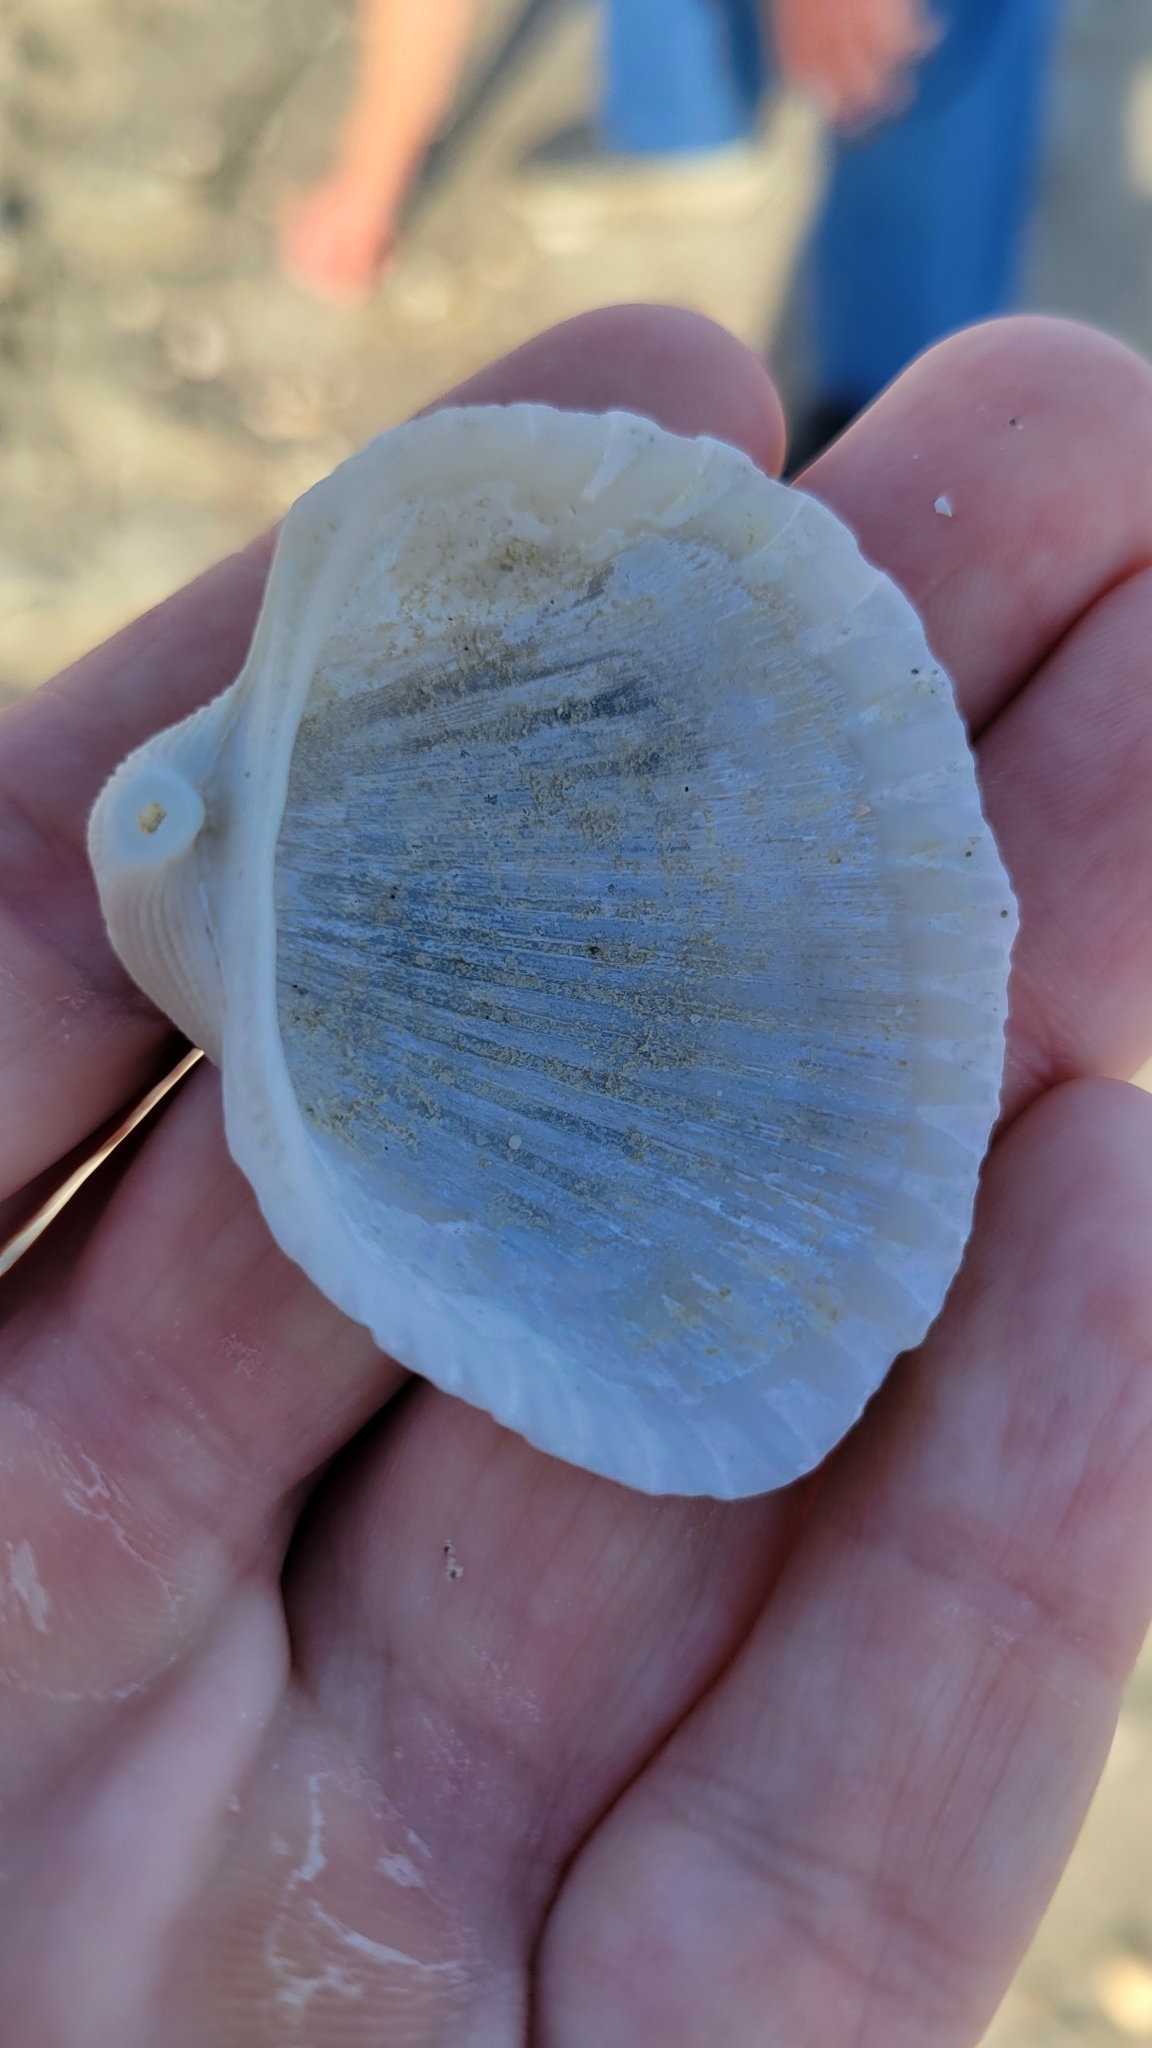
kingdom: Animalia
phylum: Mollusca
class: Bivalvia
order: Arcida
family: Arcidae
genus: Anadara
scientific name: Anadara brasiliana
